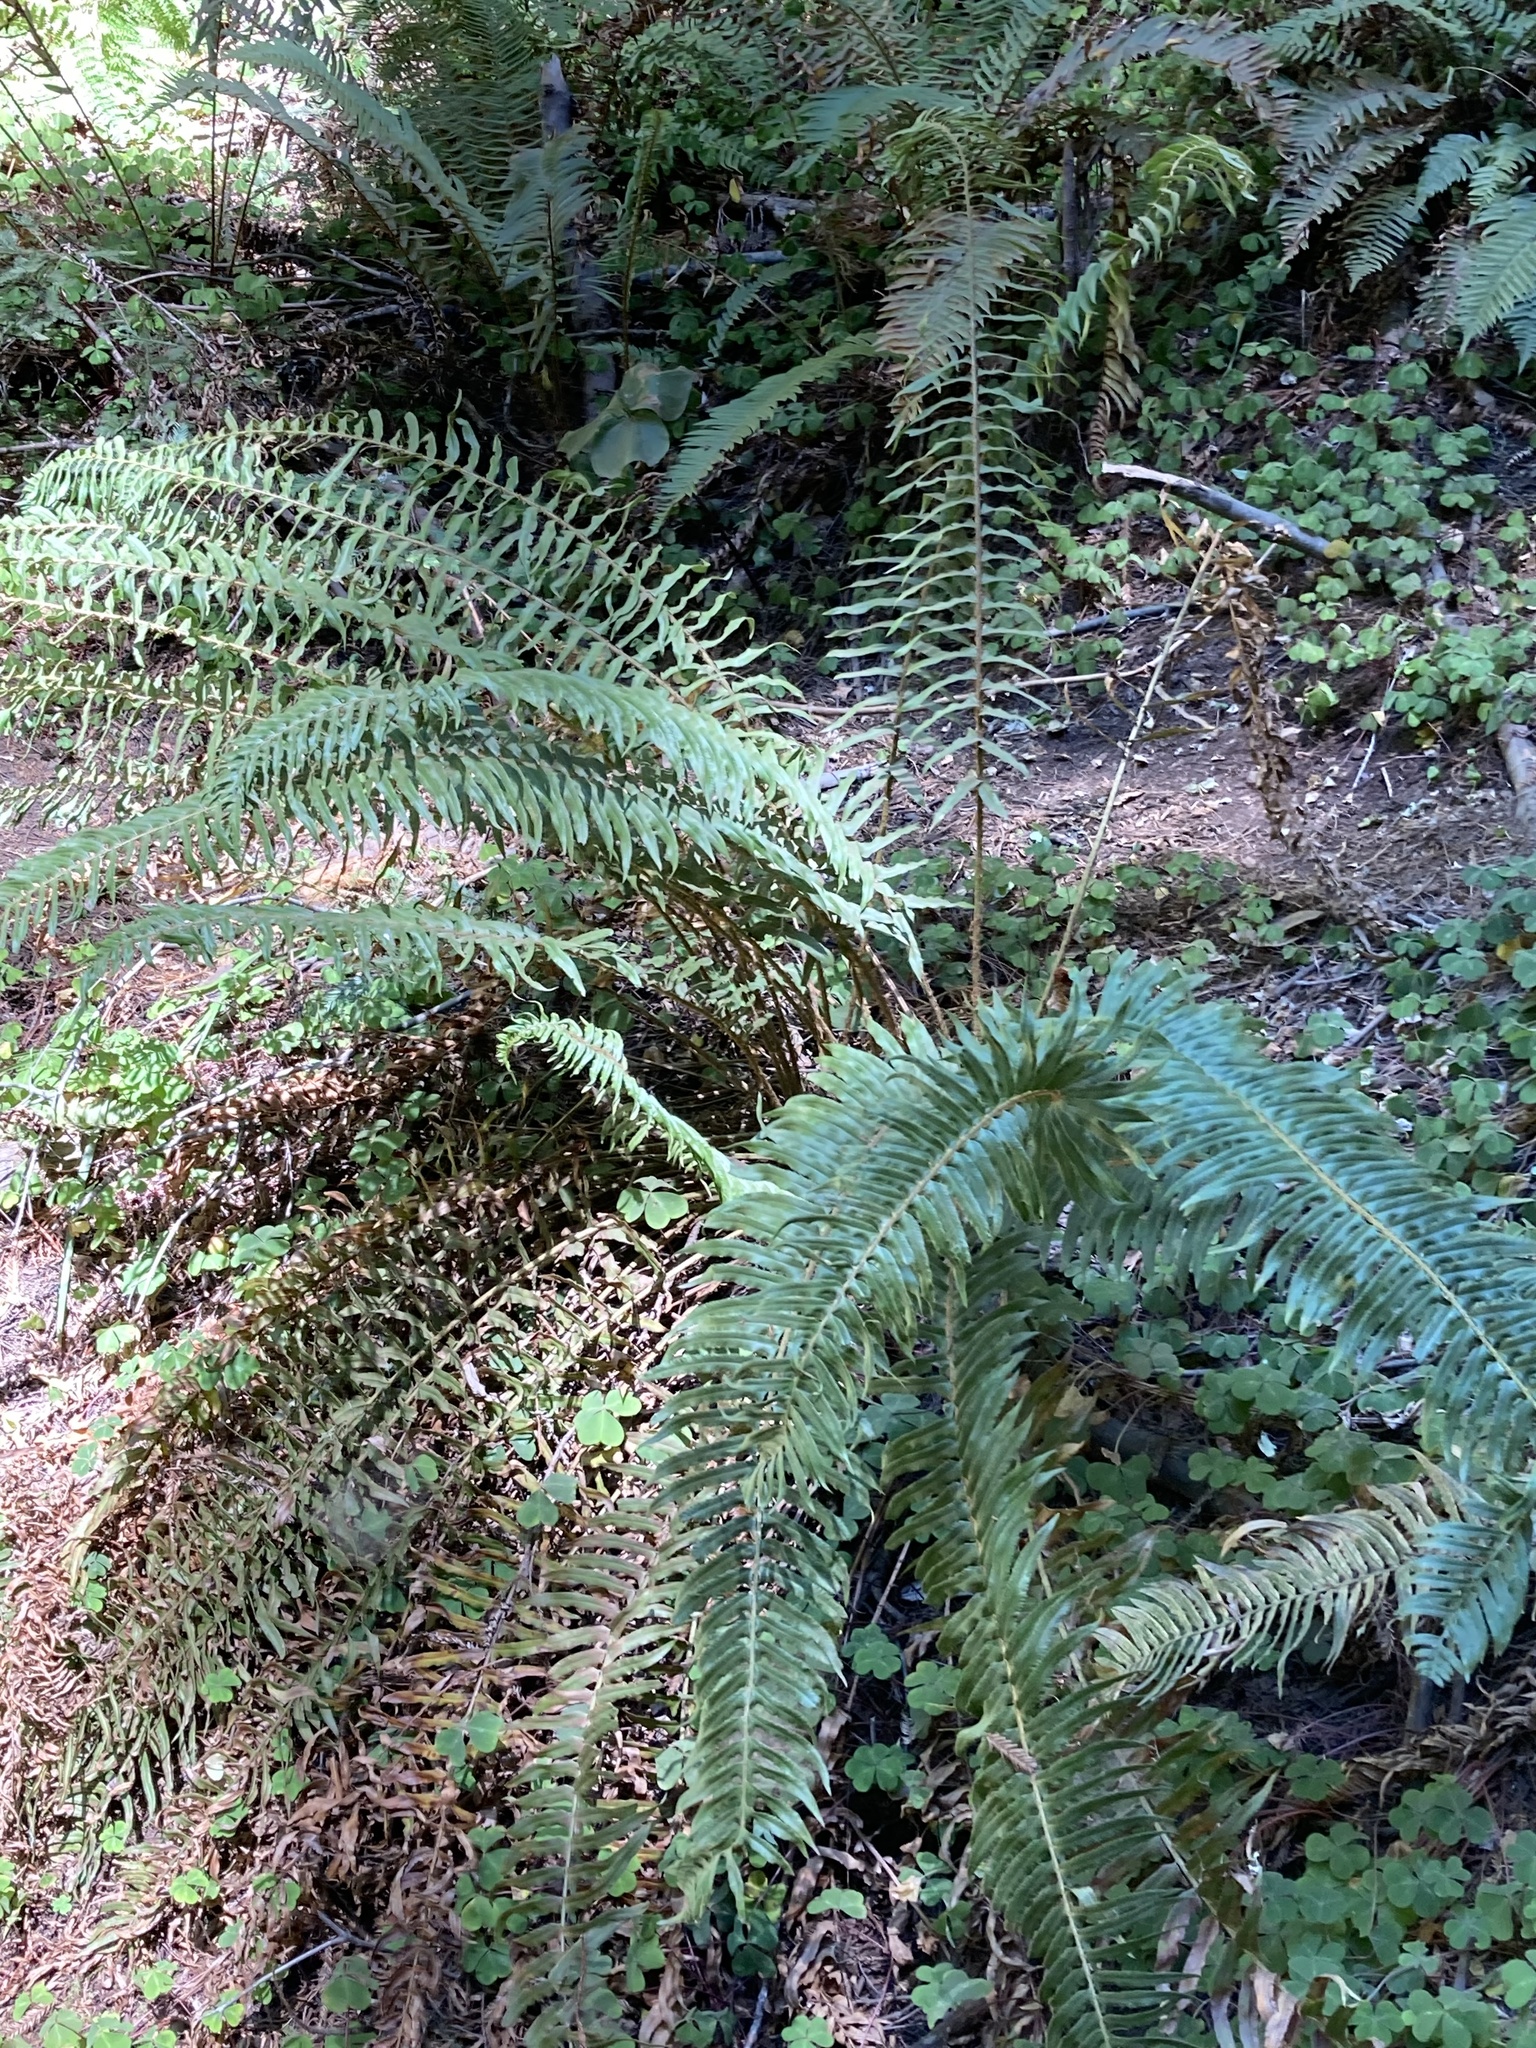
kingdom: Plantae
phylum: Tracheophyta
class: Polypodiopsida
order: Polypodiales
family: Dryopteridaceae
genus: Polystichum
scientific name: Polystichum munitum
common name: Western sword-fern
